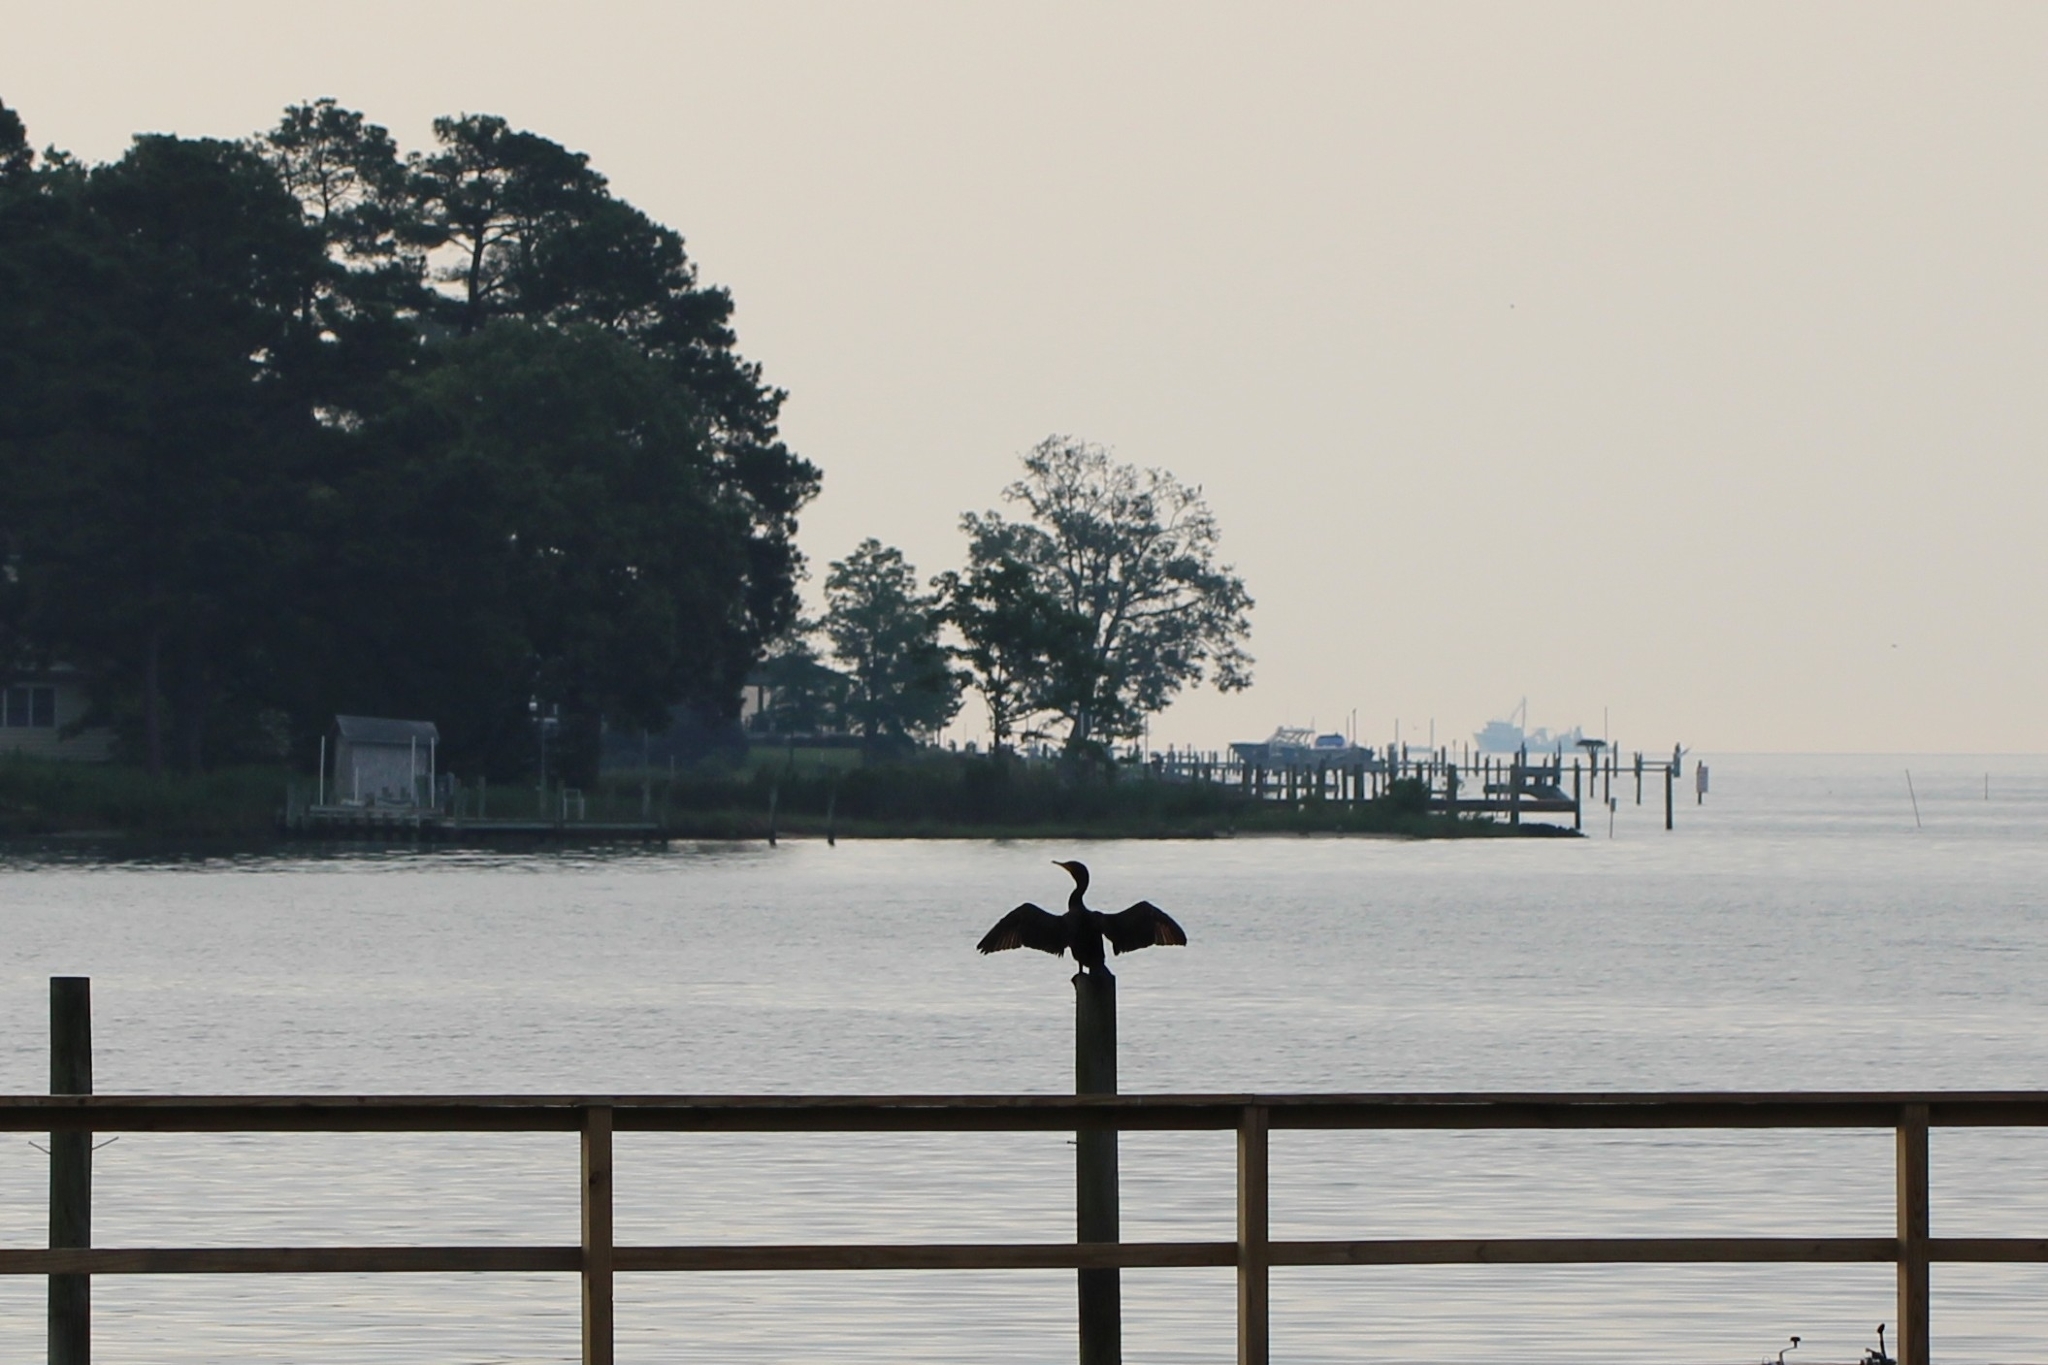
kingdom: Animalia
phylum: Chordata
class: Aves
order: Suliformes
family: Phalacrocoracidae
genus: Phalacrocorax
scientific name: Phalacrocorax auritus
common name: Double-crested cormorant
